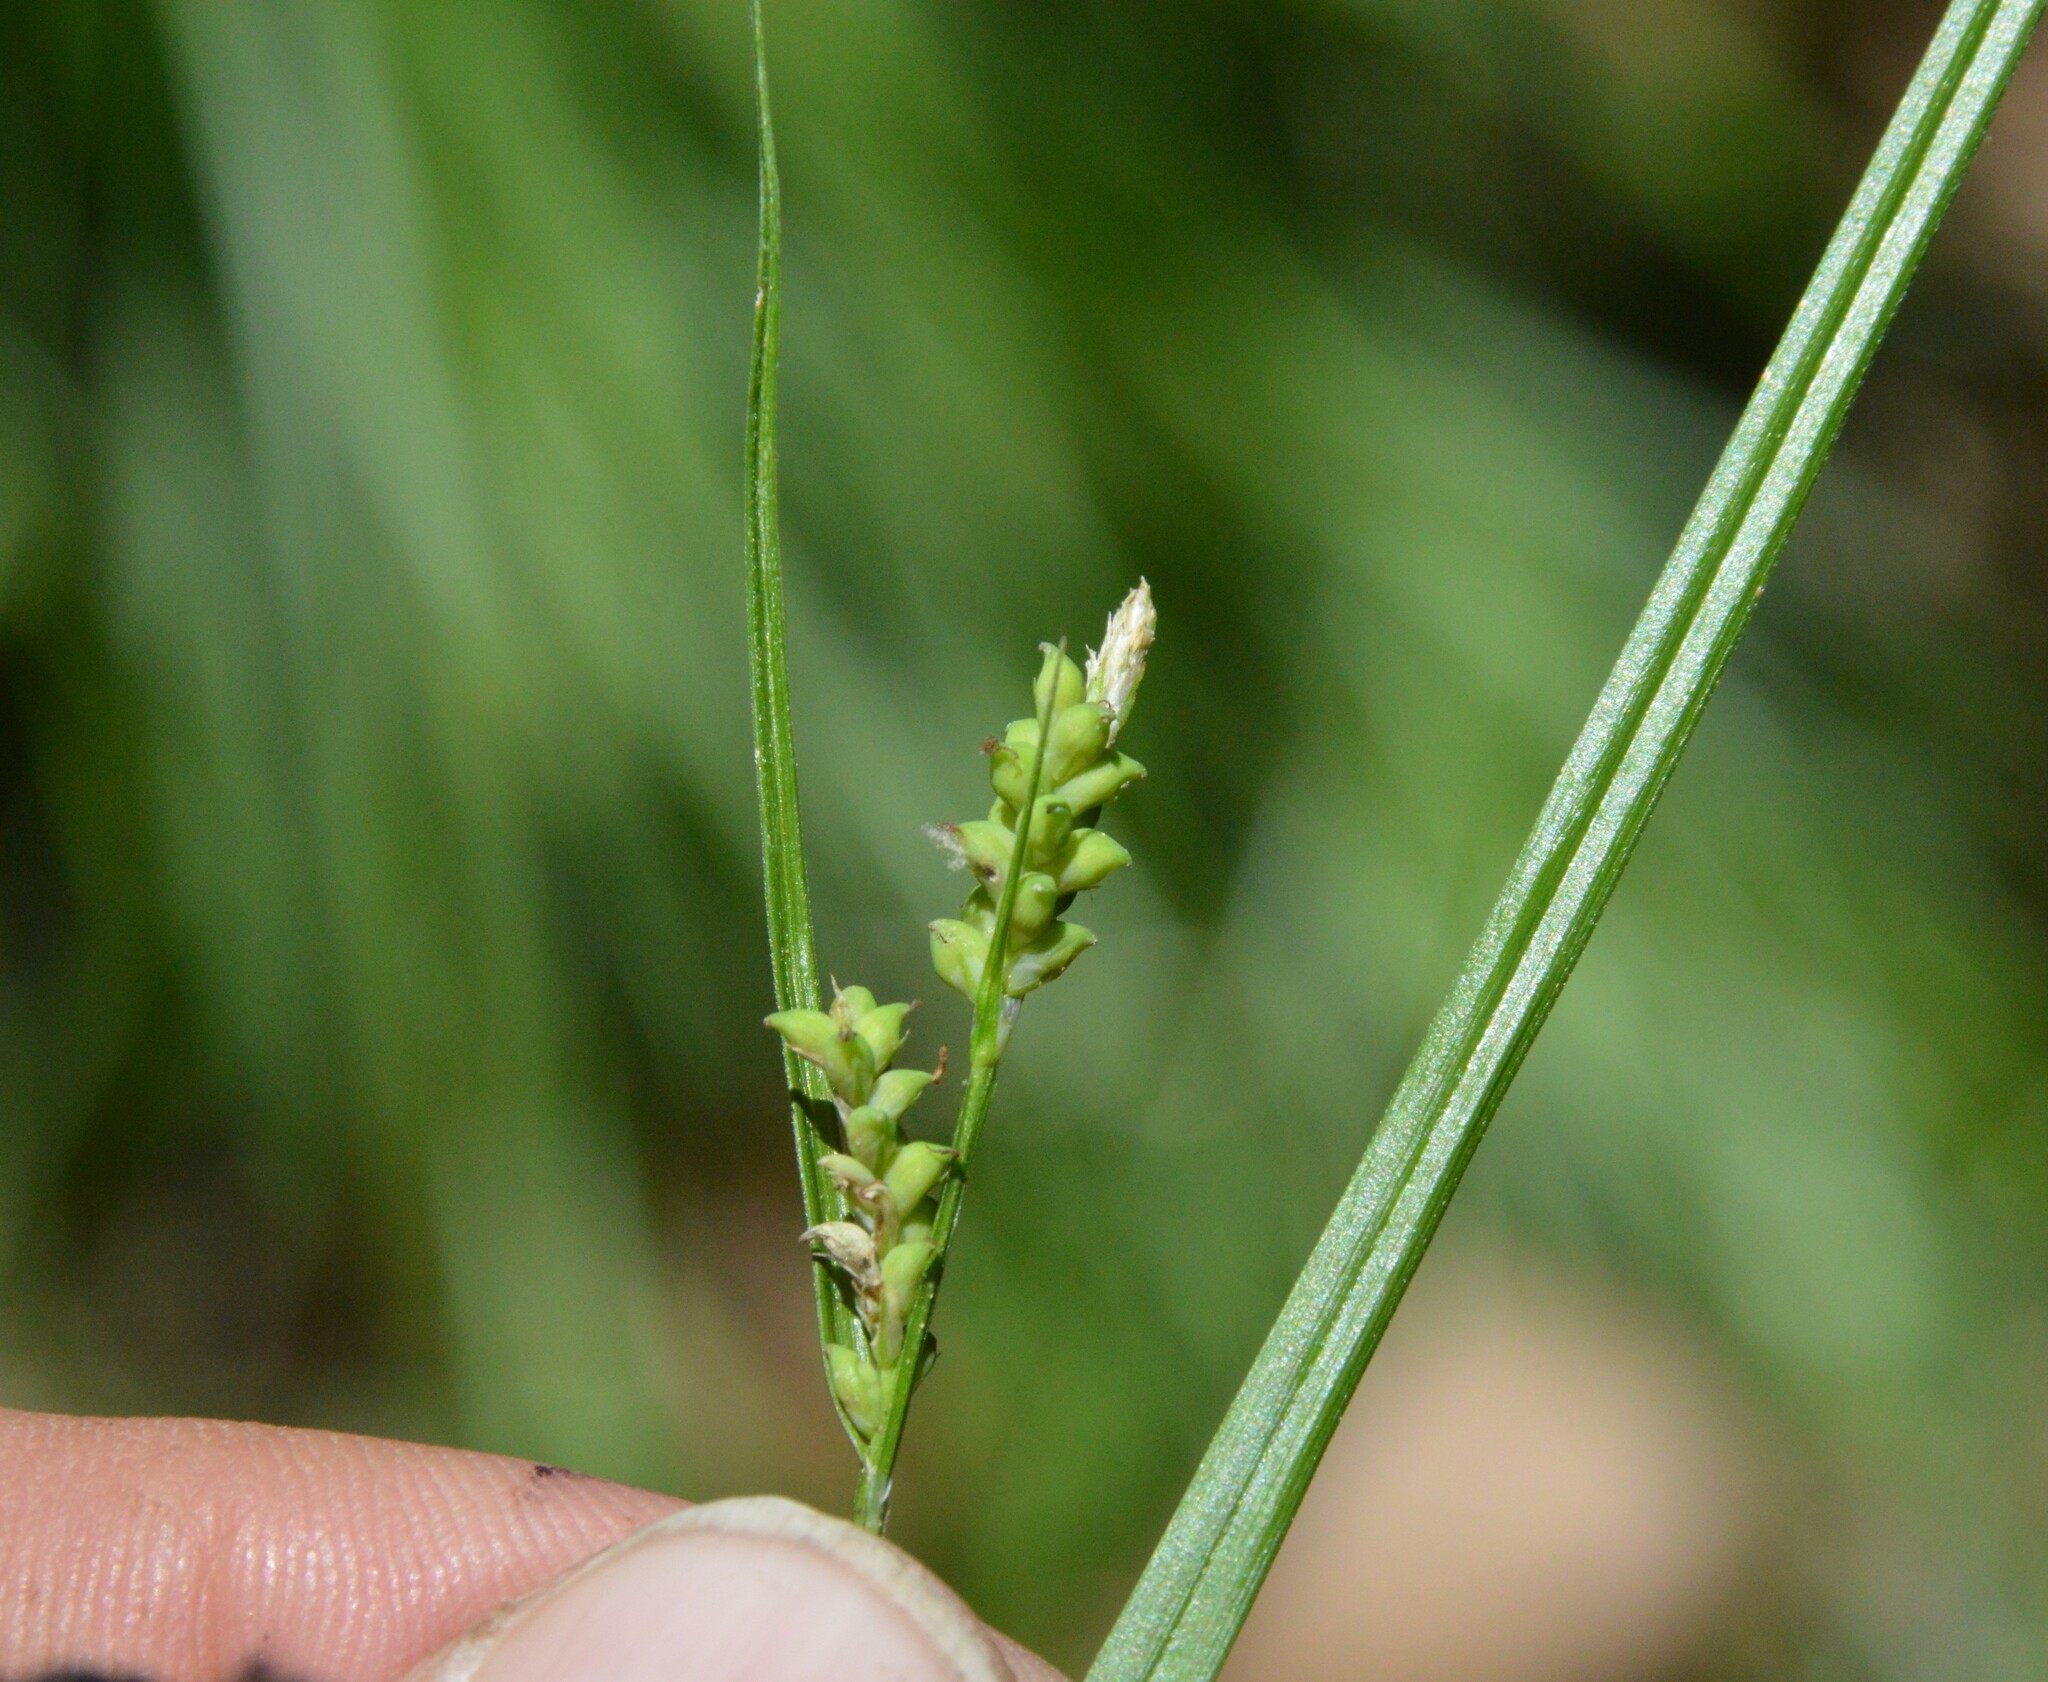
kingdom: Plantae
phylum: Tracheophyta
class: Liliopsida
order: Poales
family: Cyperaceae
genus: Carex
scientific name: Carex blanda
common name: Bland sedge
